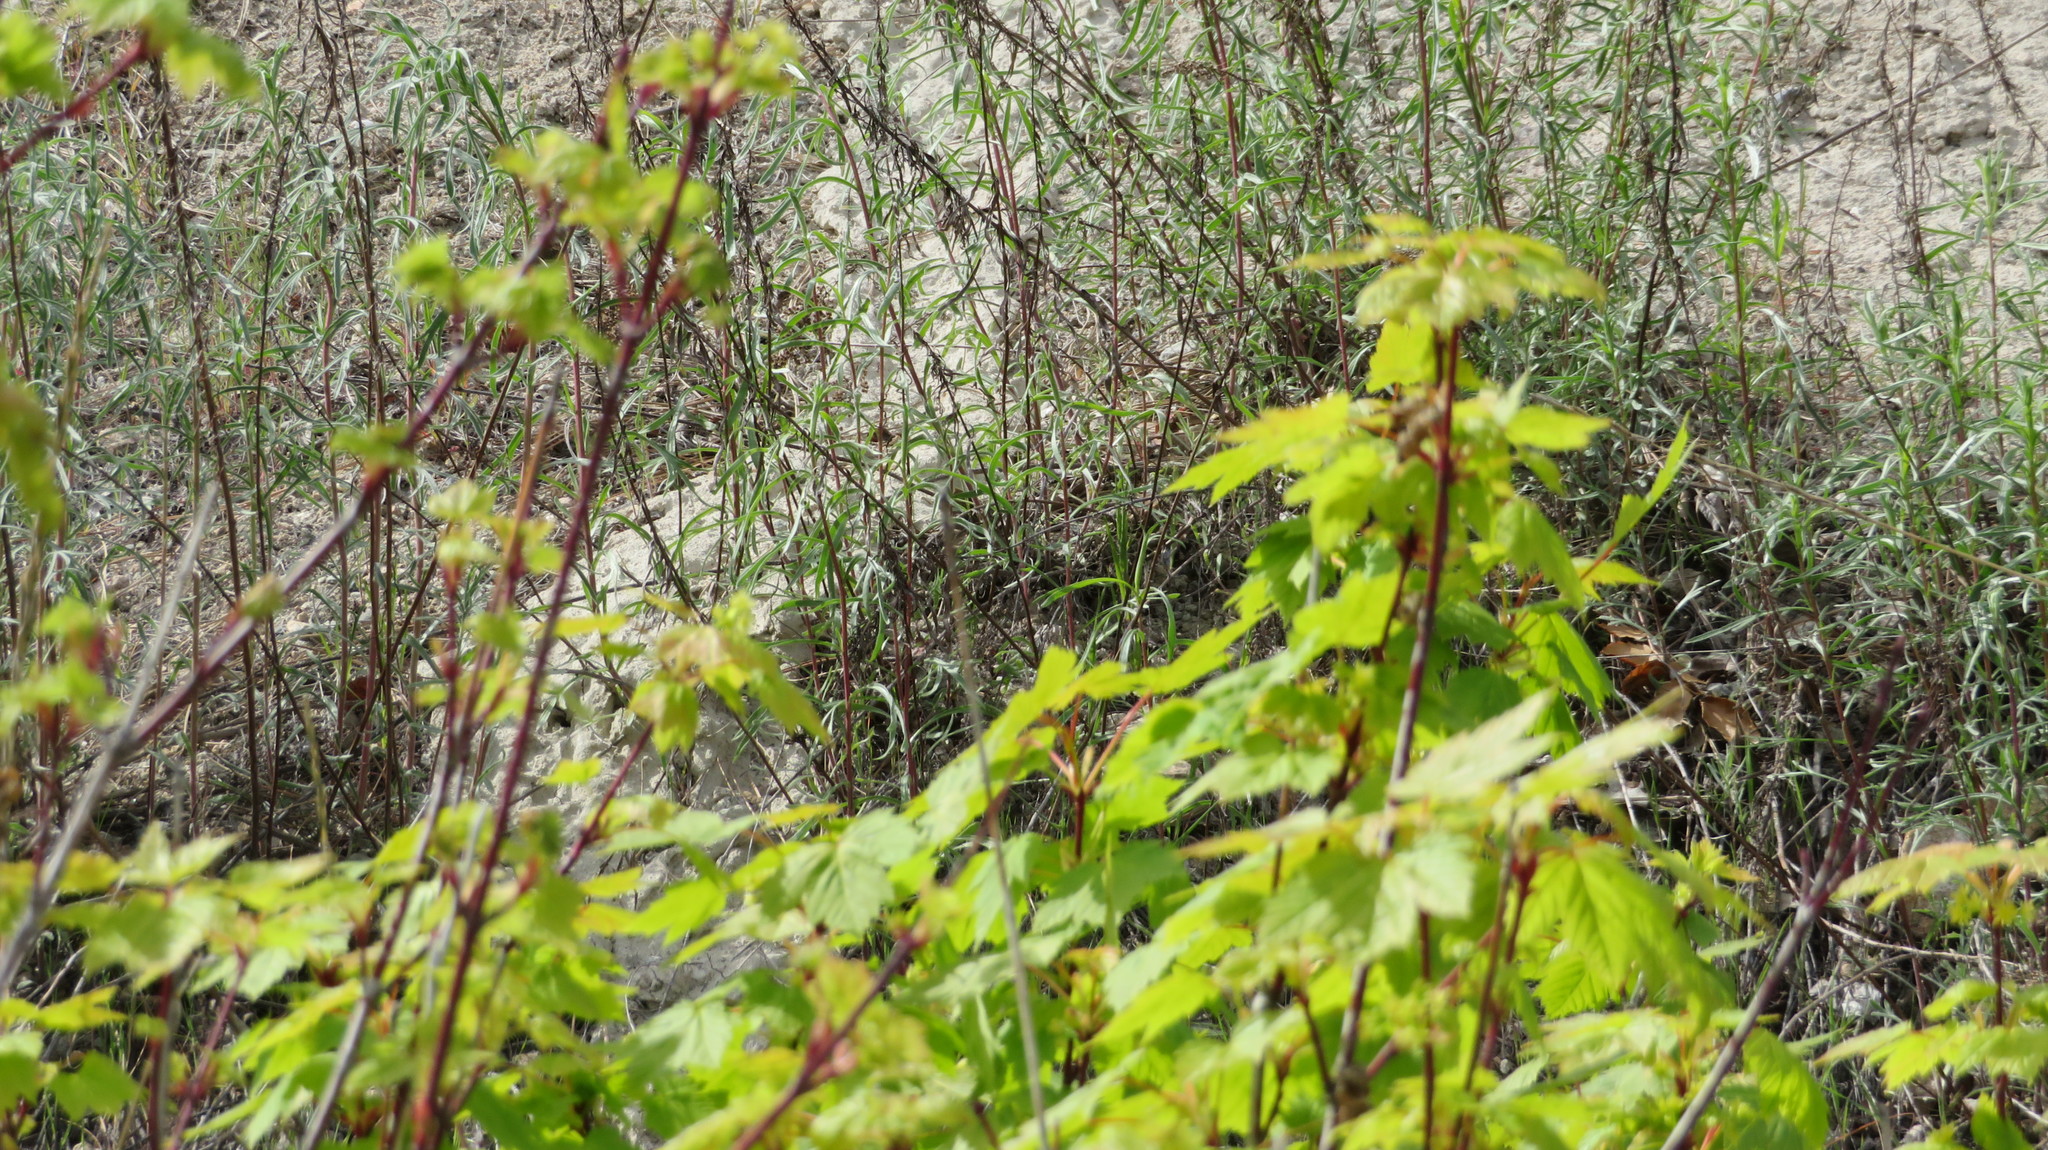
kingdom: Plantae
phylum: Tracheophyta
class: Magnoliopsida
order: Sapindales
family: Sapindaceae
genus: Acer
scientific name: Acer glabrum
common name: Rocky mountain maple
